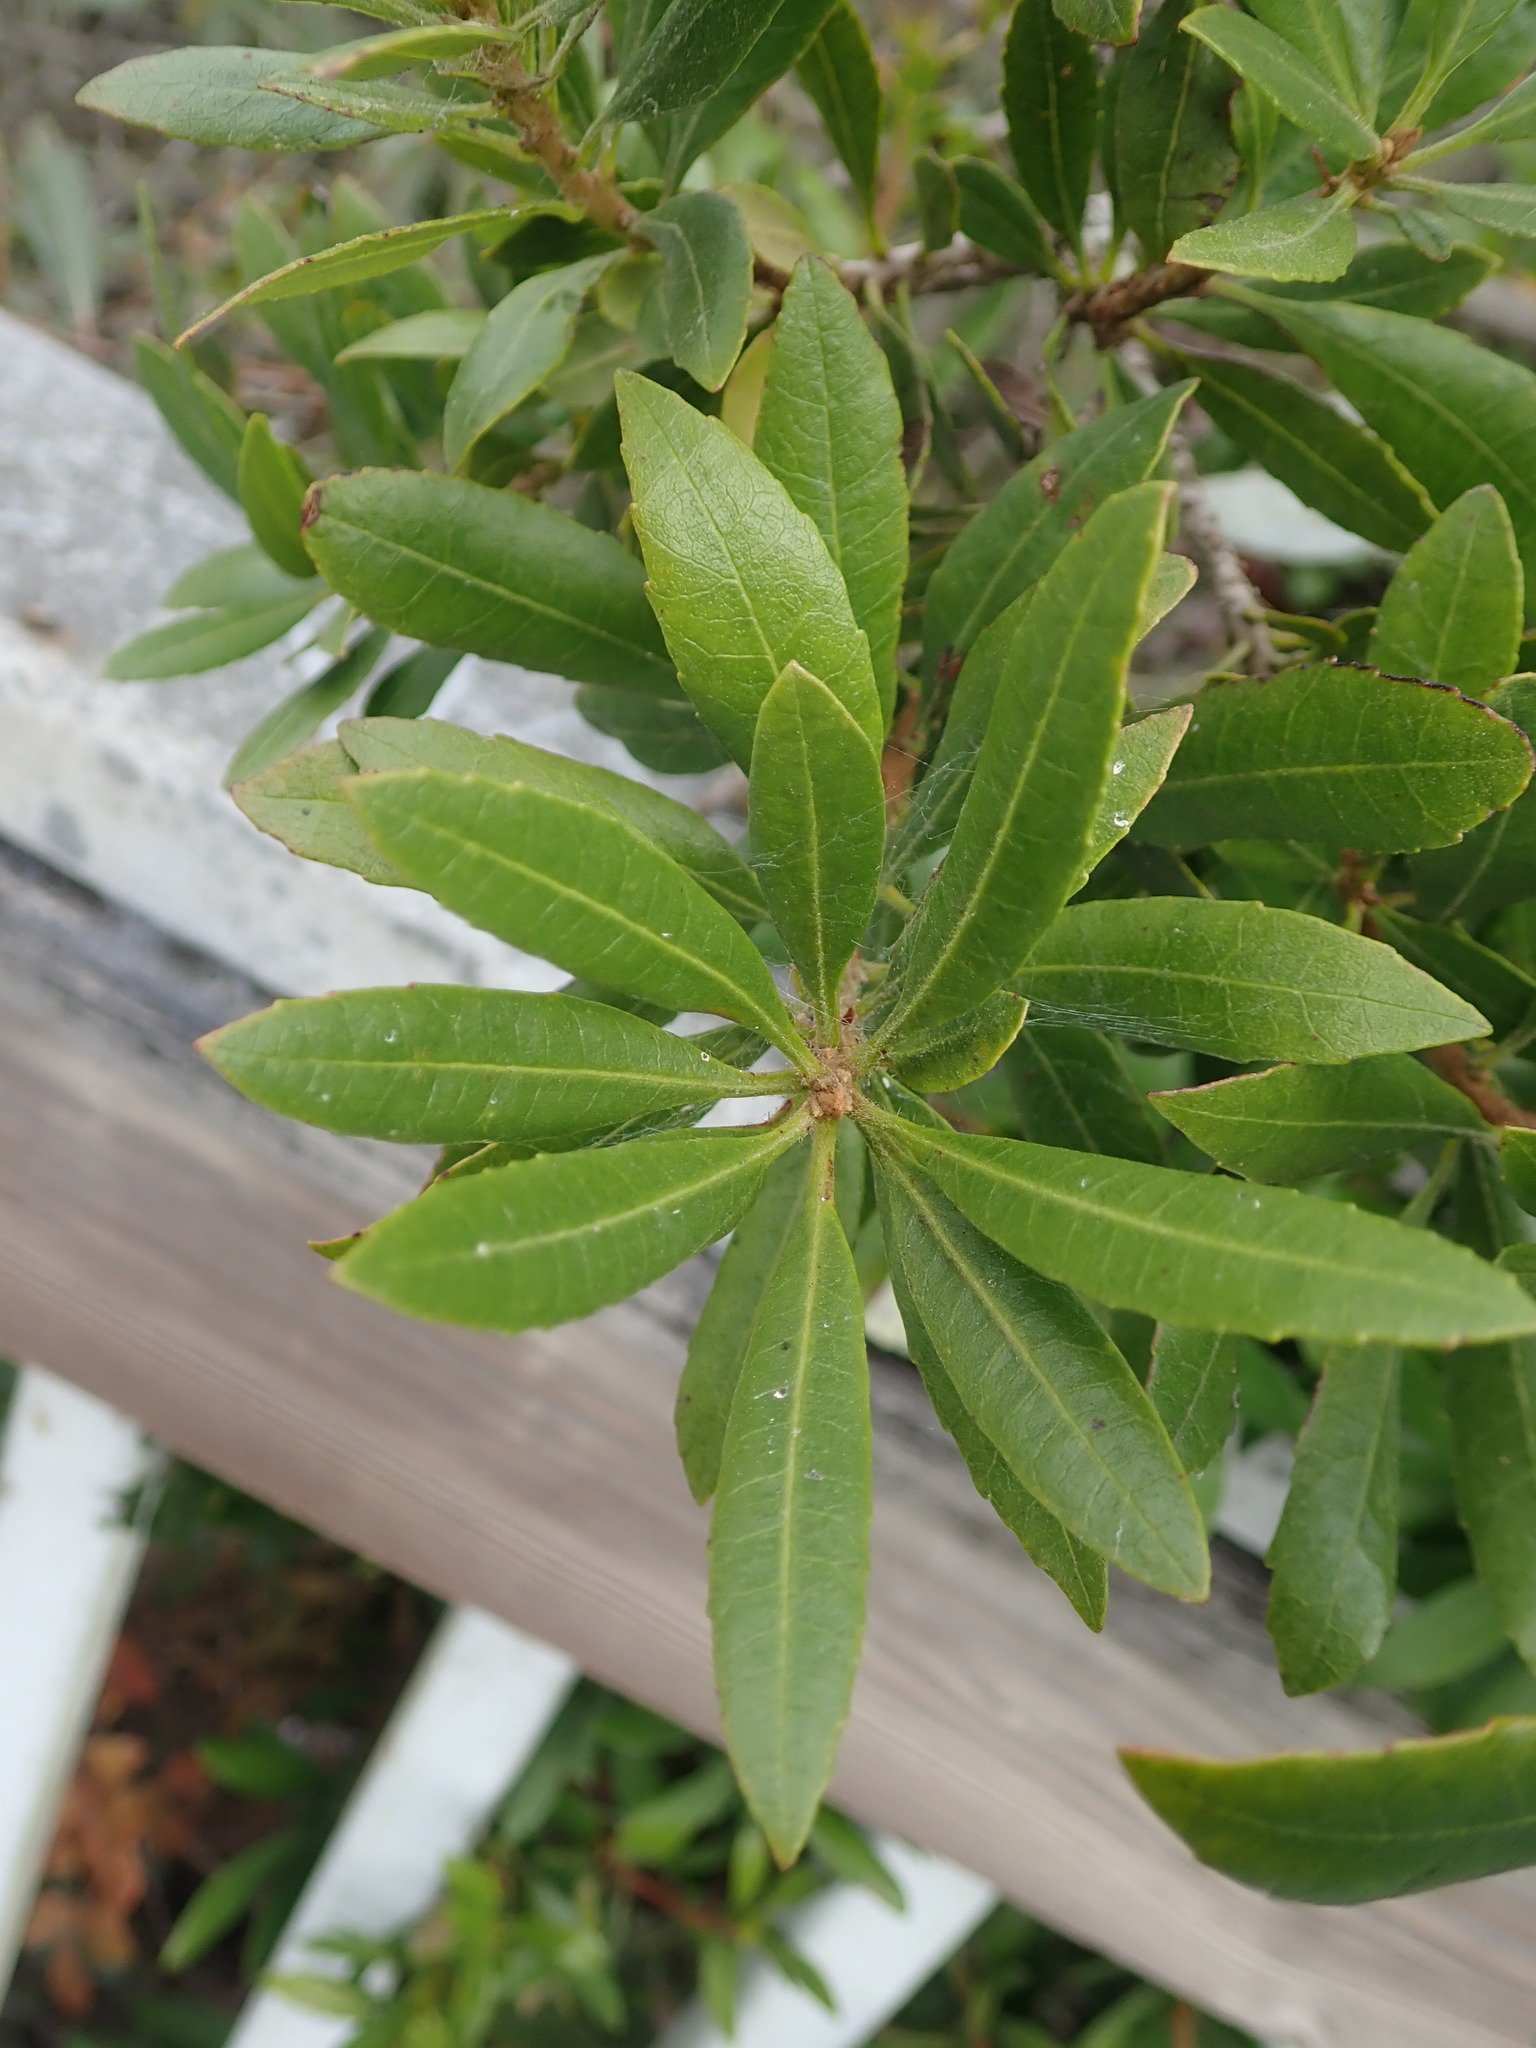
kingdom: Plantae
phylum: Tracheophyta
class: Magnoliopsida
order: Fagales
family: Myricaceae
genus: Morella
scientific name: Morella californica
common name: California wax-myrtle
